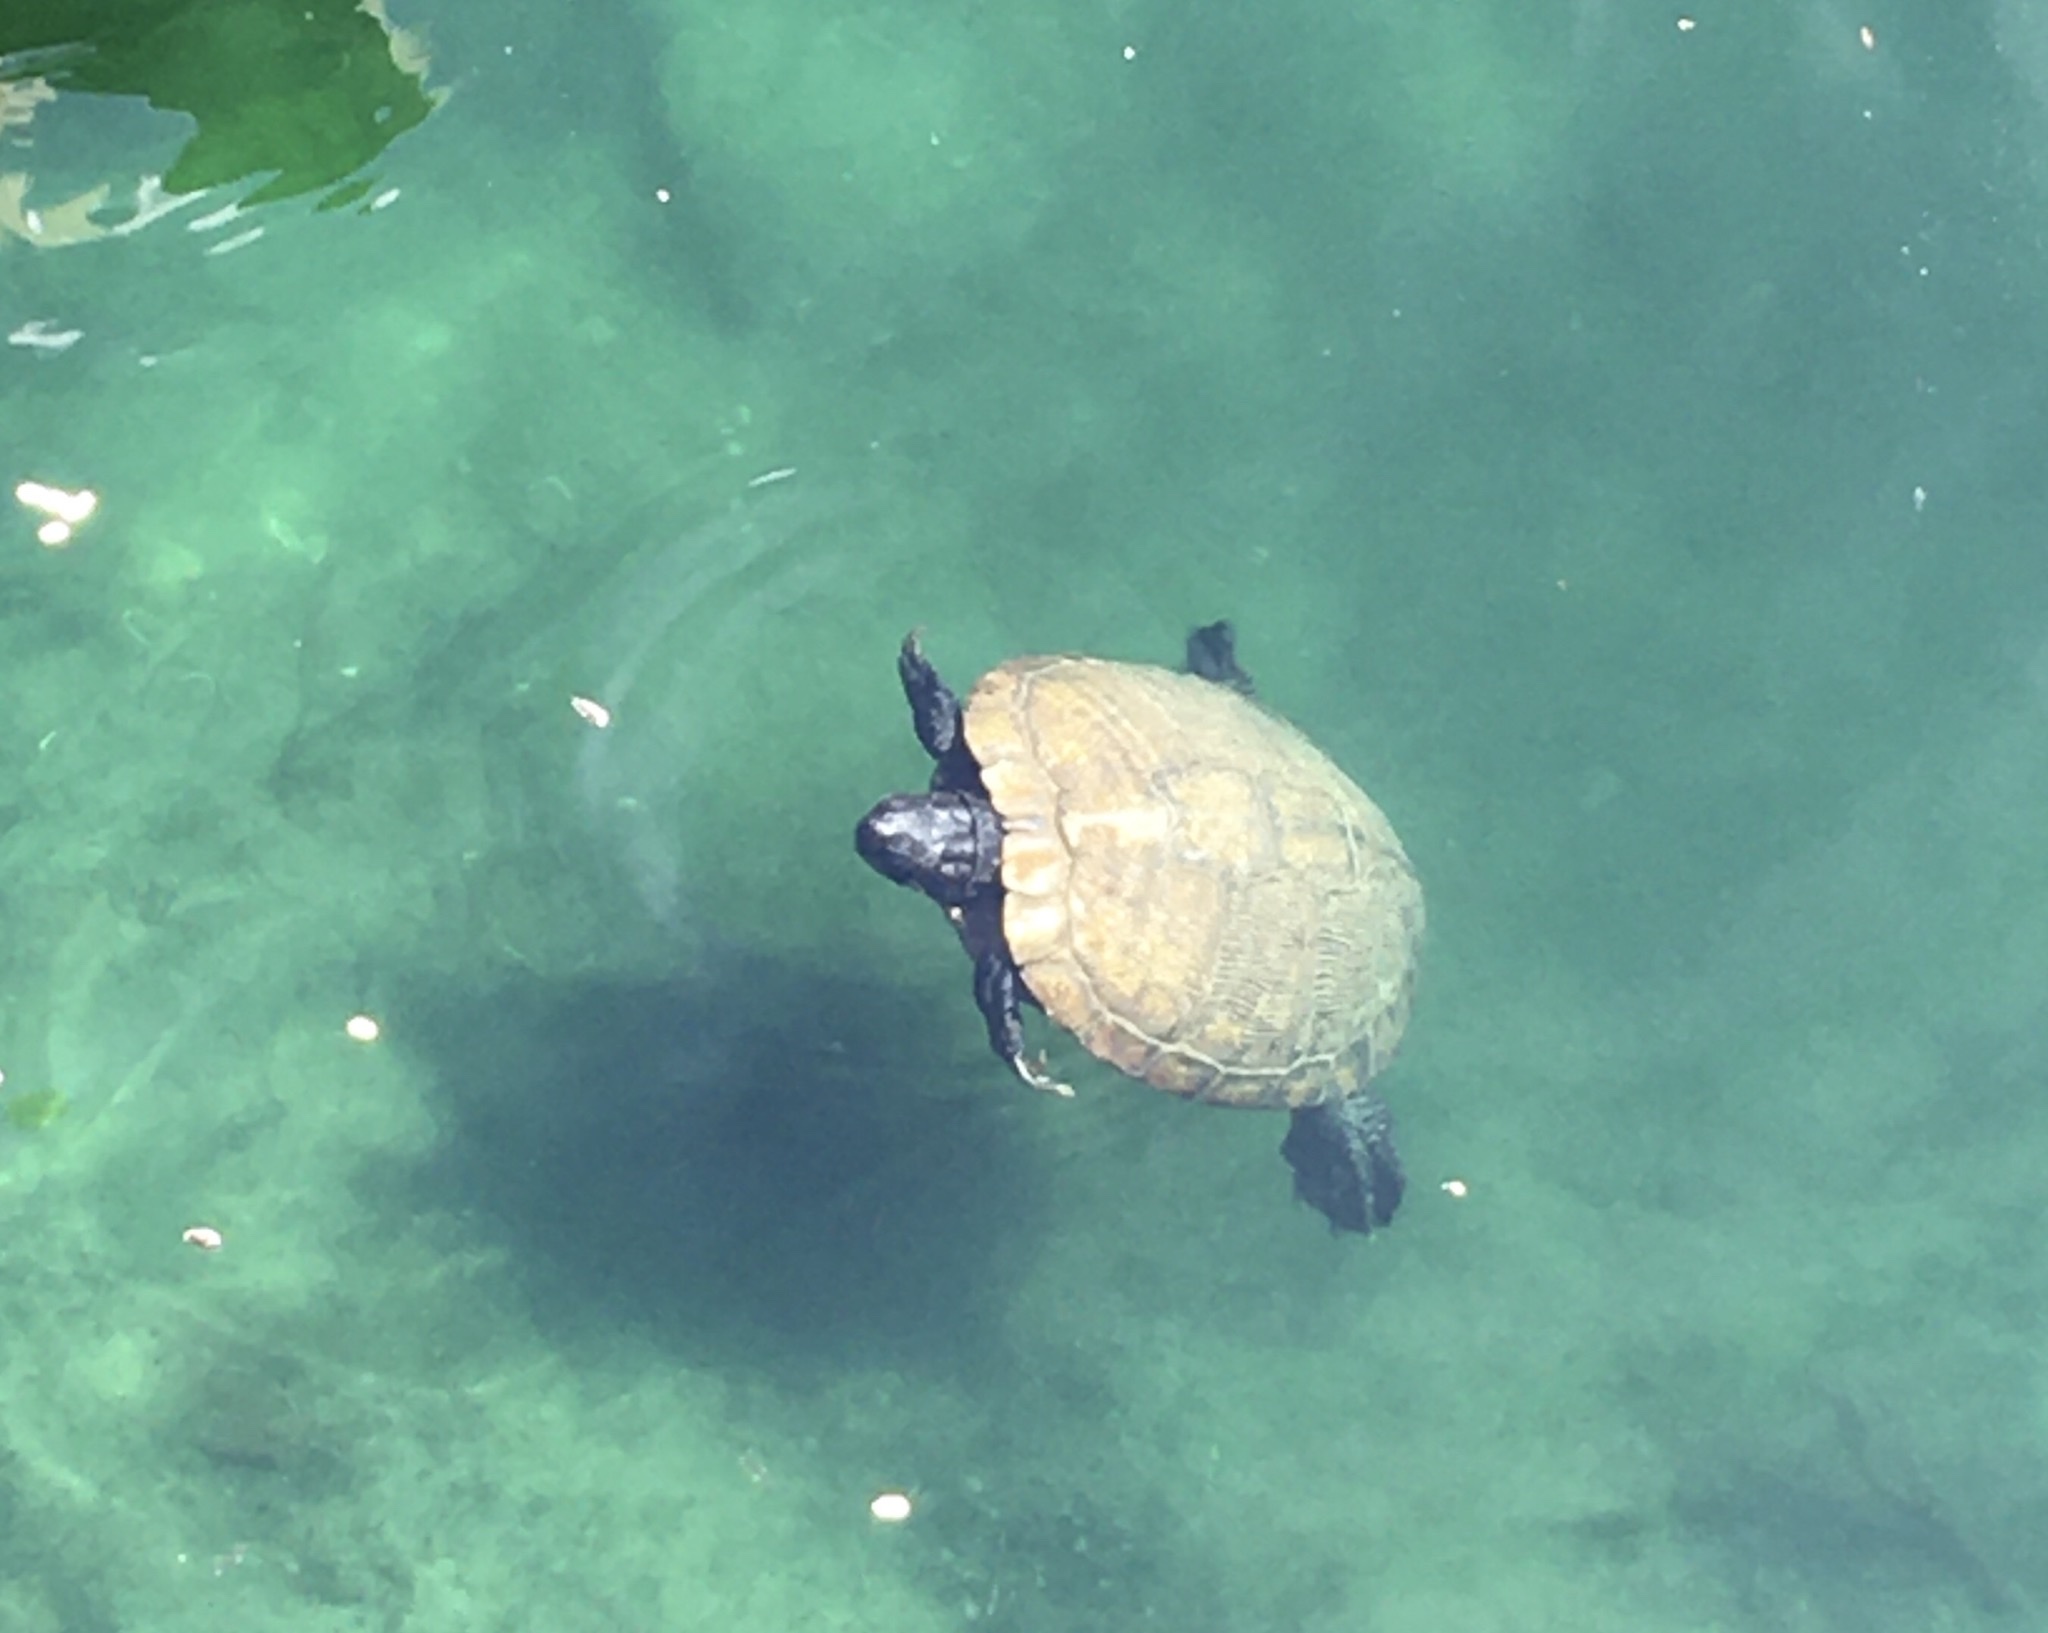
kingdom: Animalia
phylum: Chordata
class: Testudines
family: Emydidae
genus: Trachemys
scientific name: Trachemys scripta
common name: Slider
